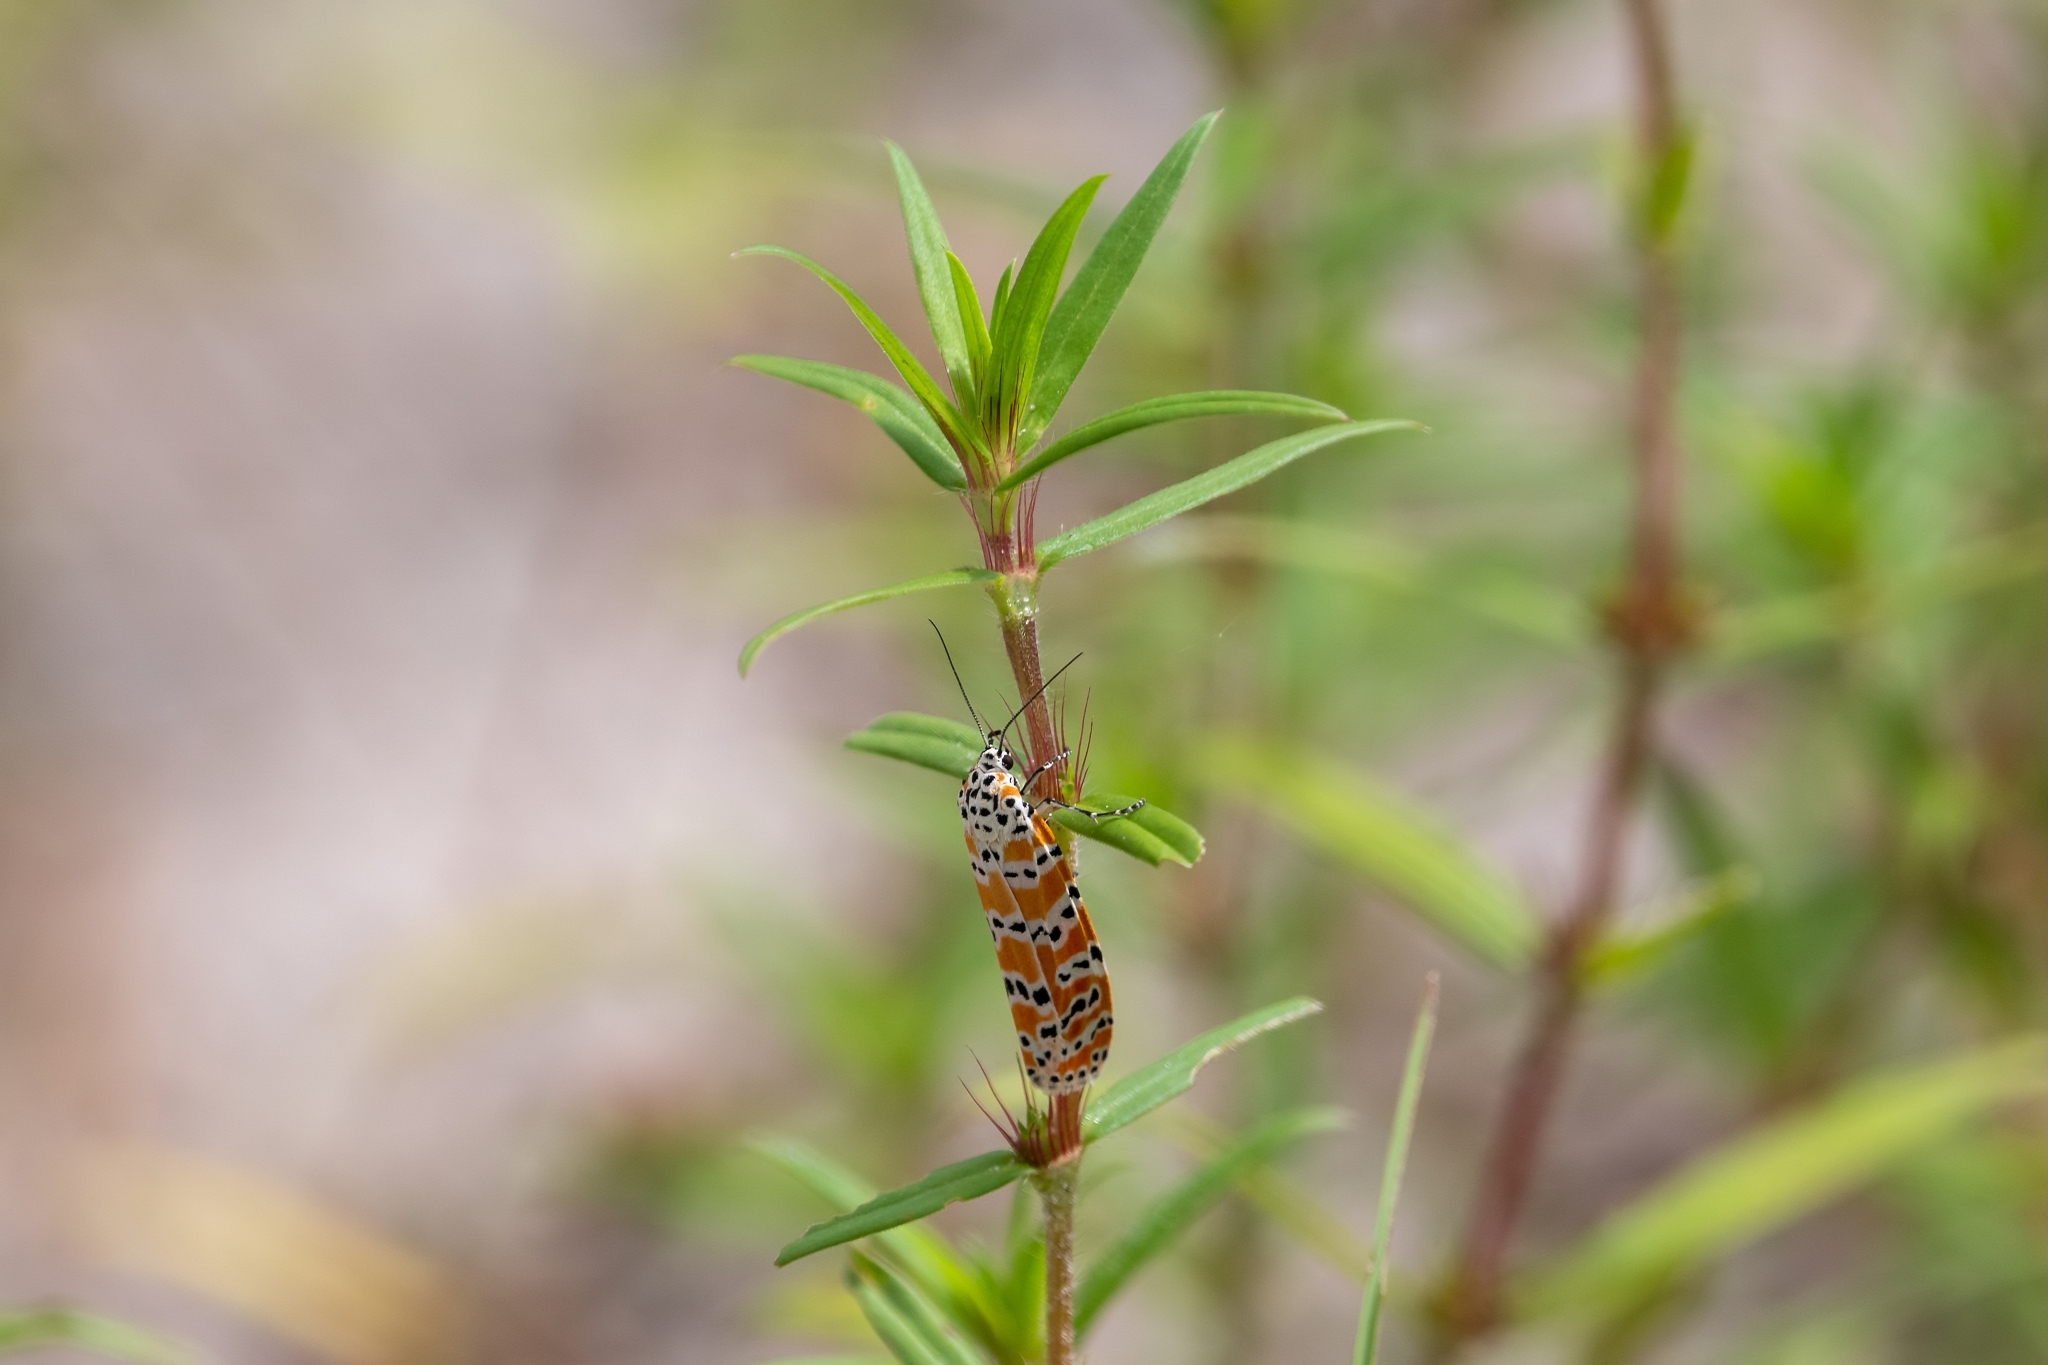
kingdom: Animalia
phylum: Arthropoda
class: Insecta
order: Lepidoptera
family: Erebidae
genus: Utetheisa
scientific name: Utetheisa ornatrix
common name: Beautiful utetheisa
